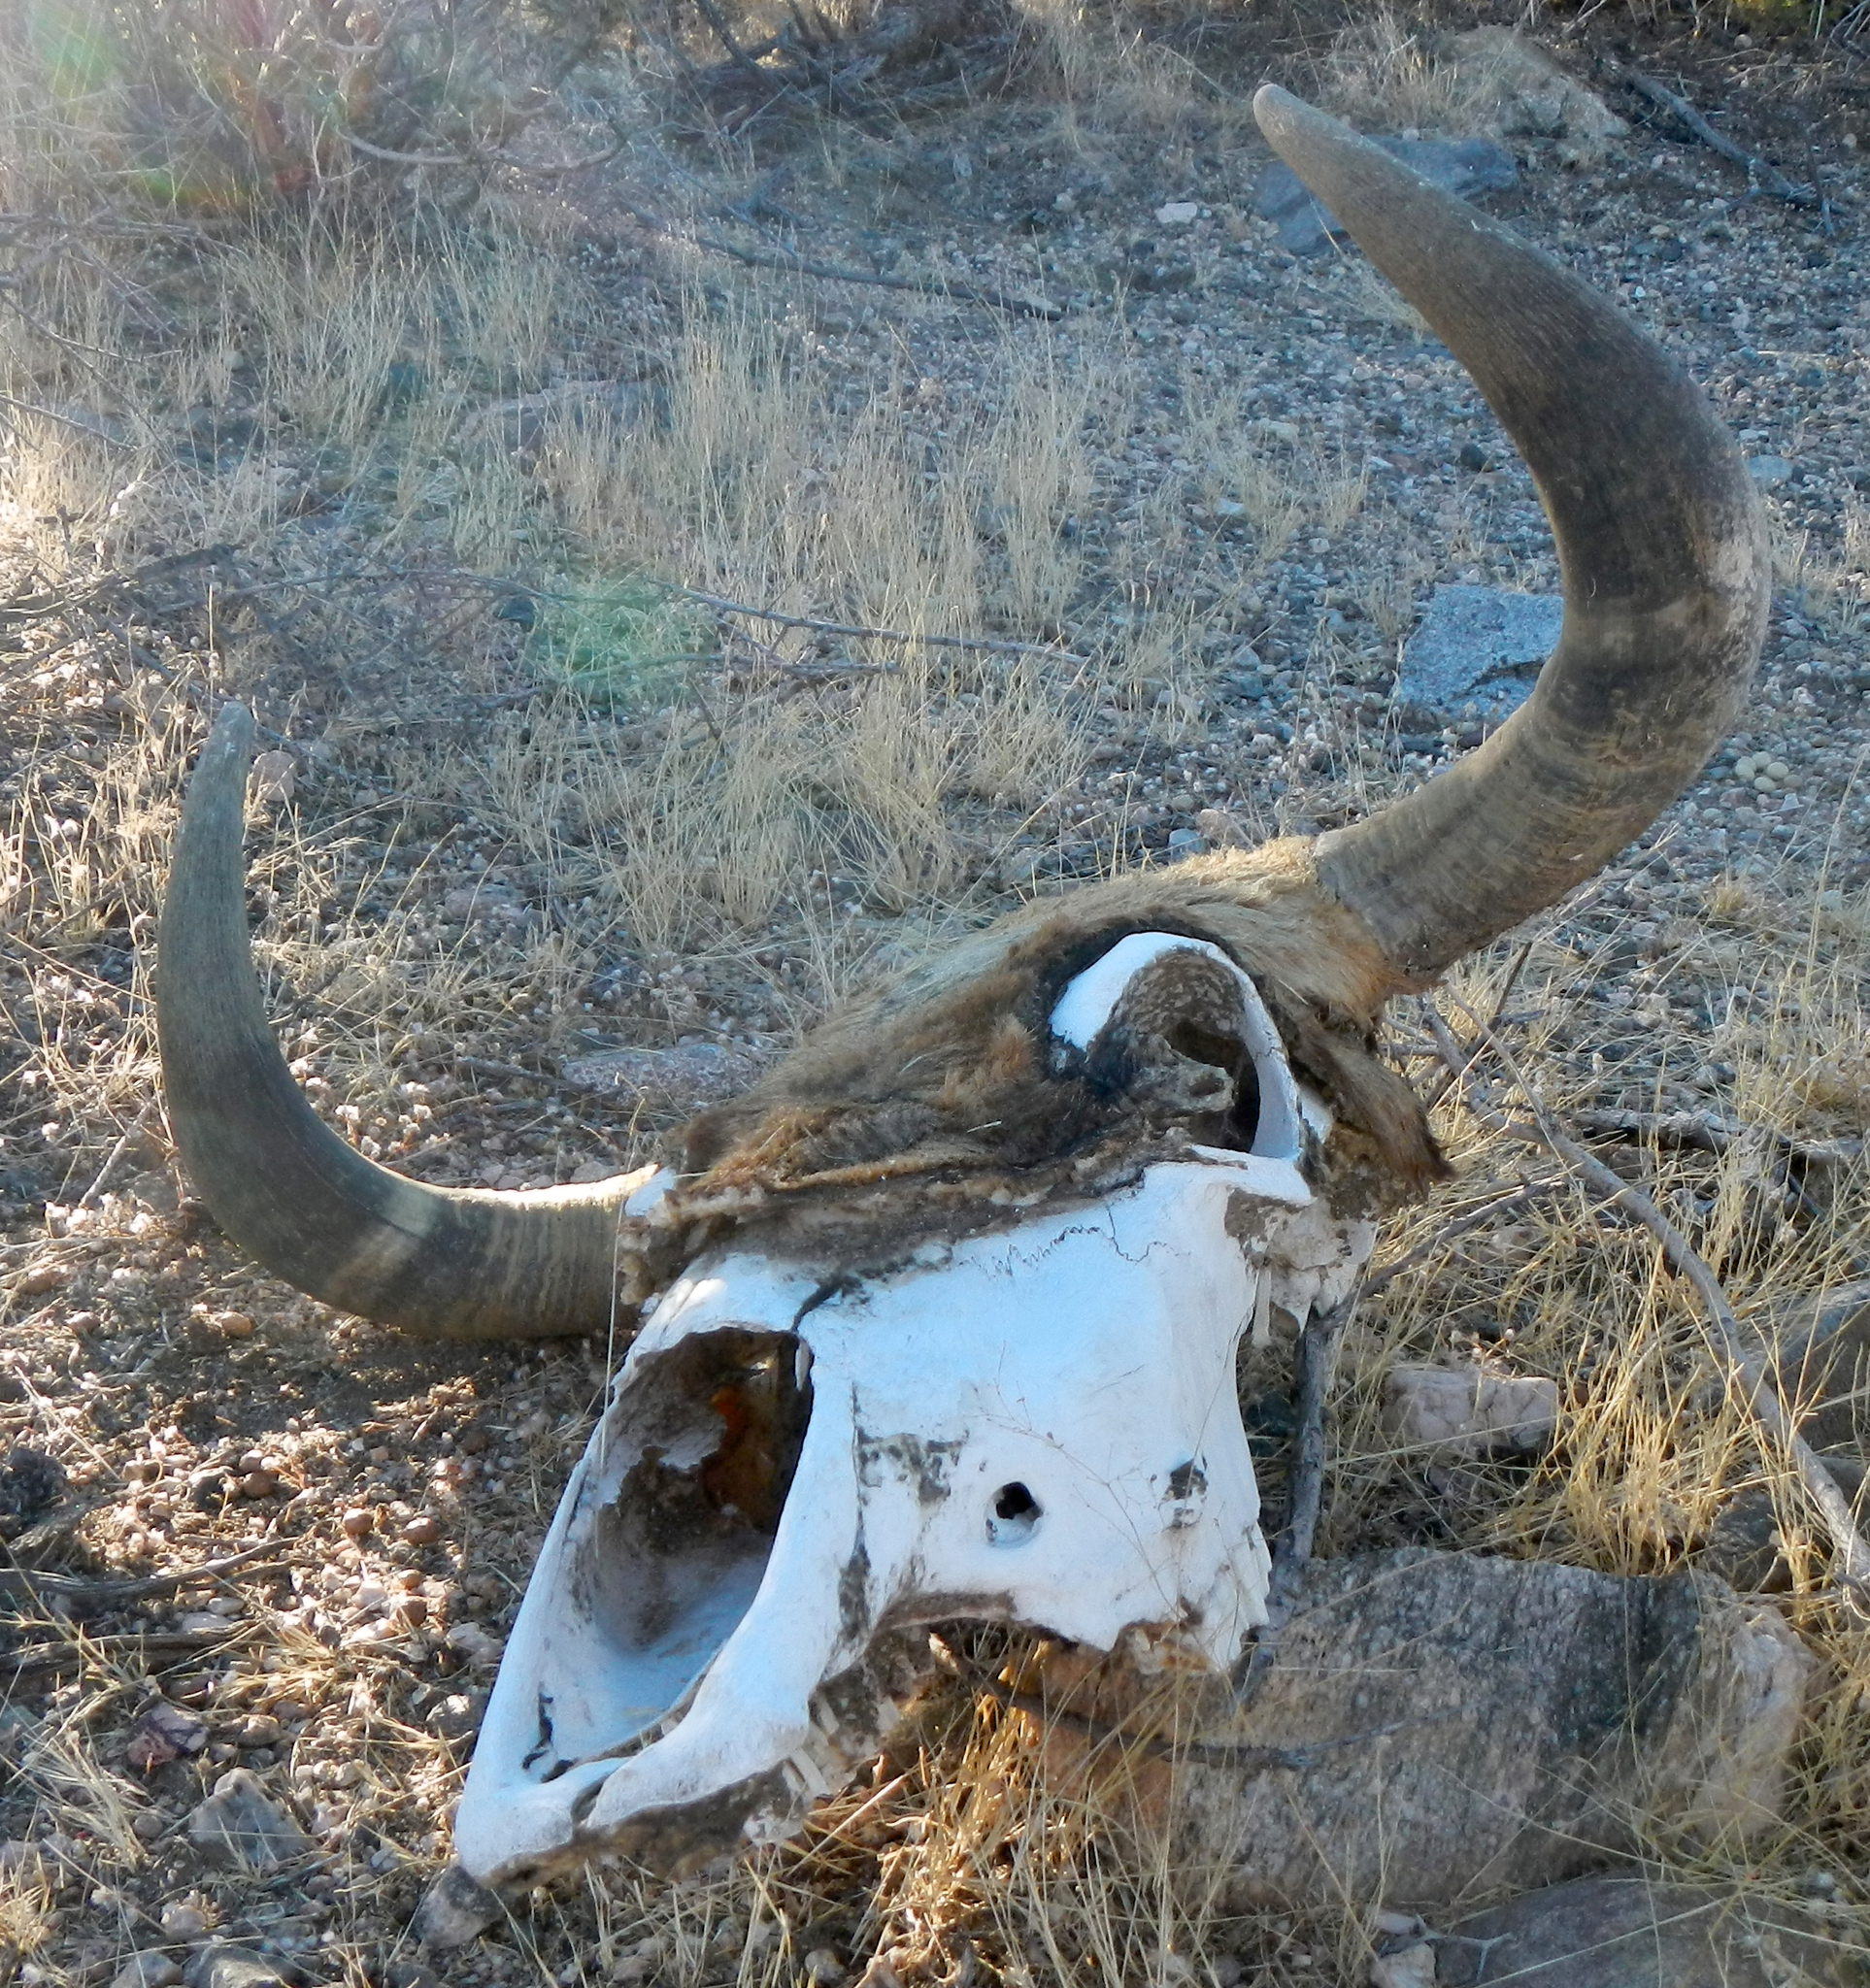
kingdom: Animalia
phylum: Chordata
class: Mammalia
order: Artiodactyla
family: Bovidae
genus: Bos
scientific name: Bos taurus
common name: Domesticated cattle
